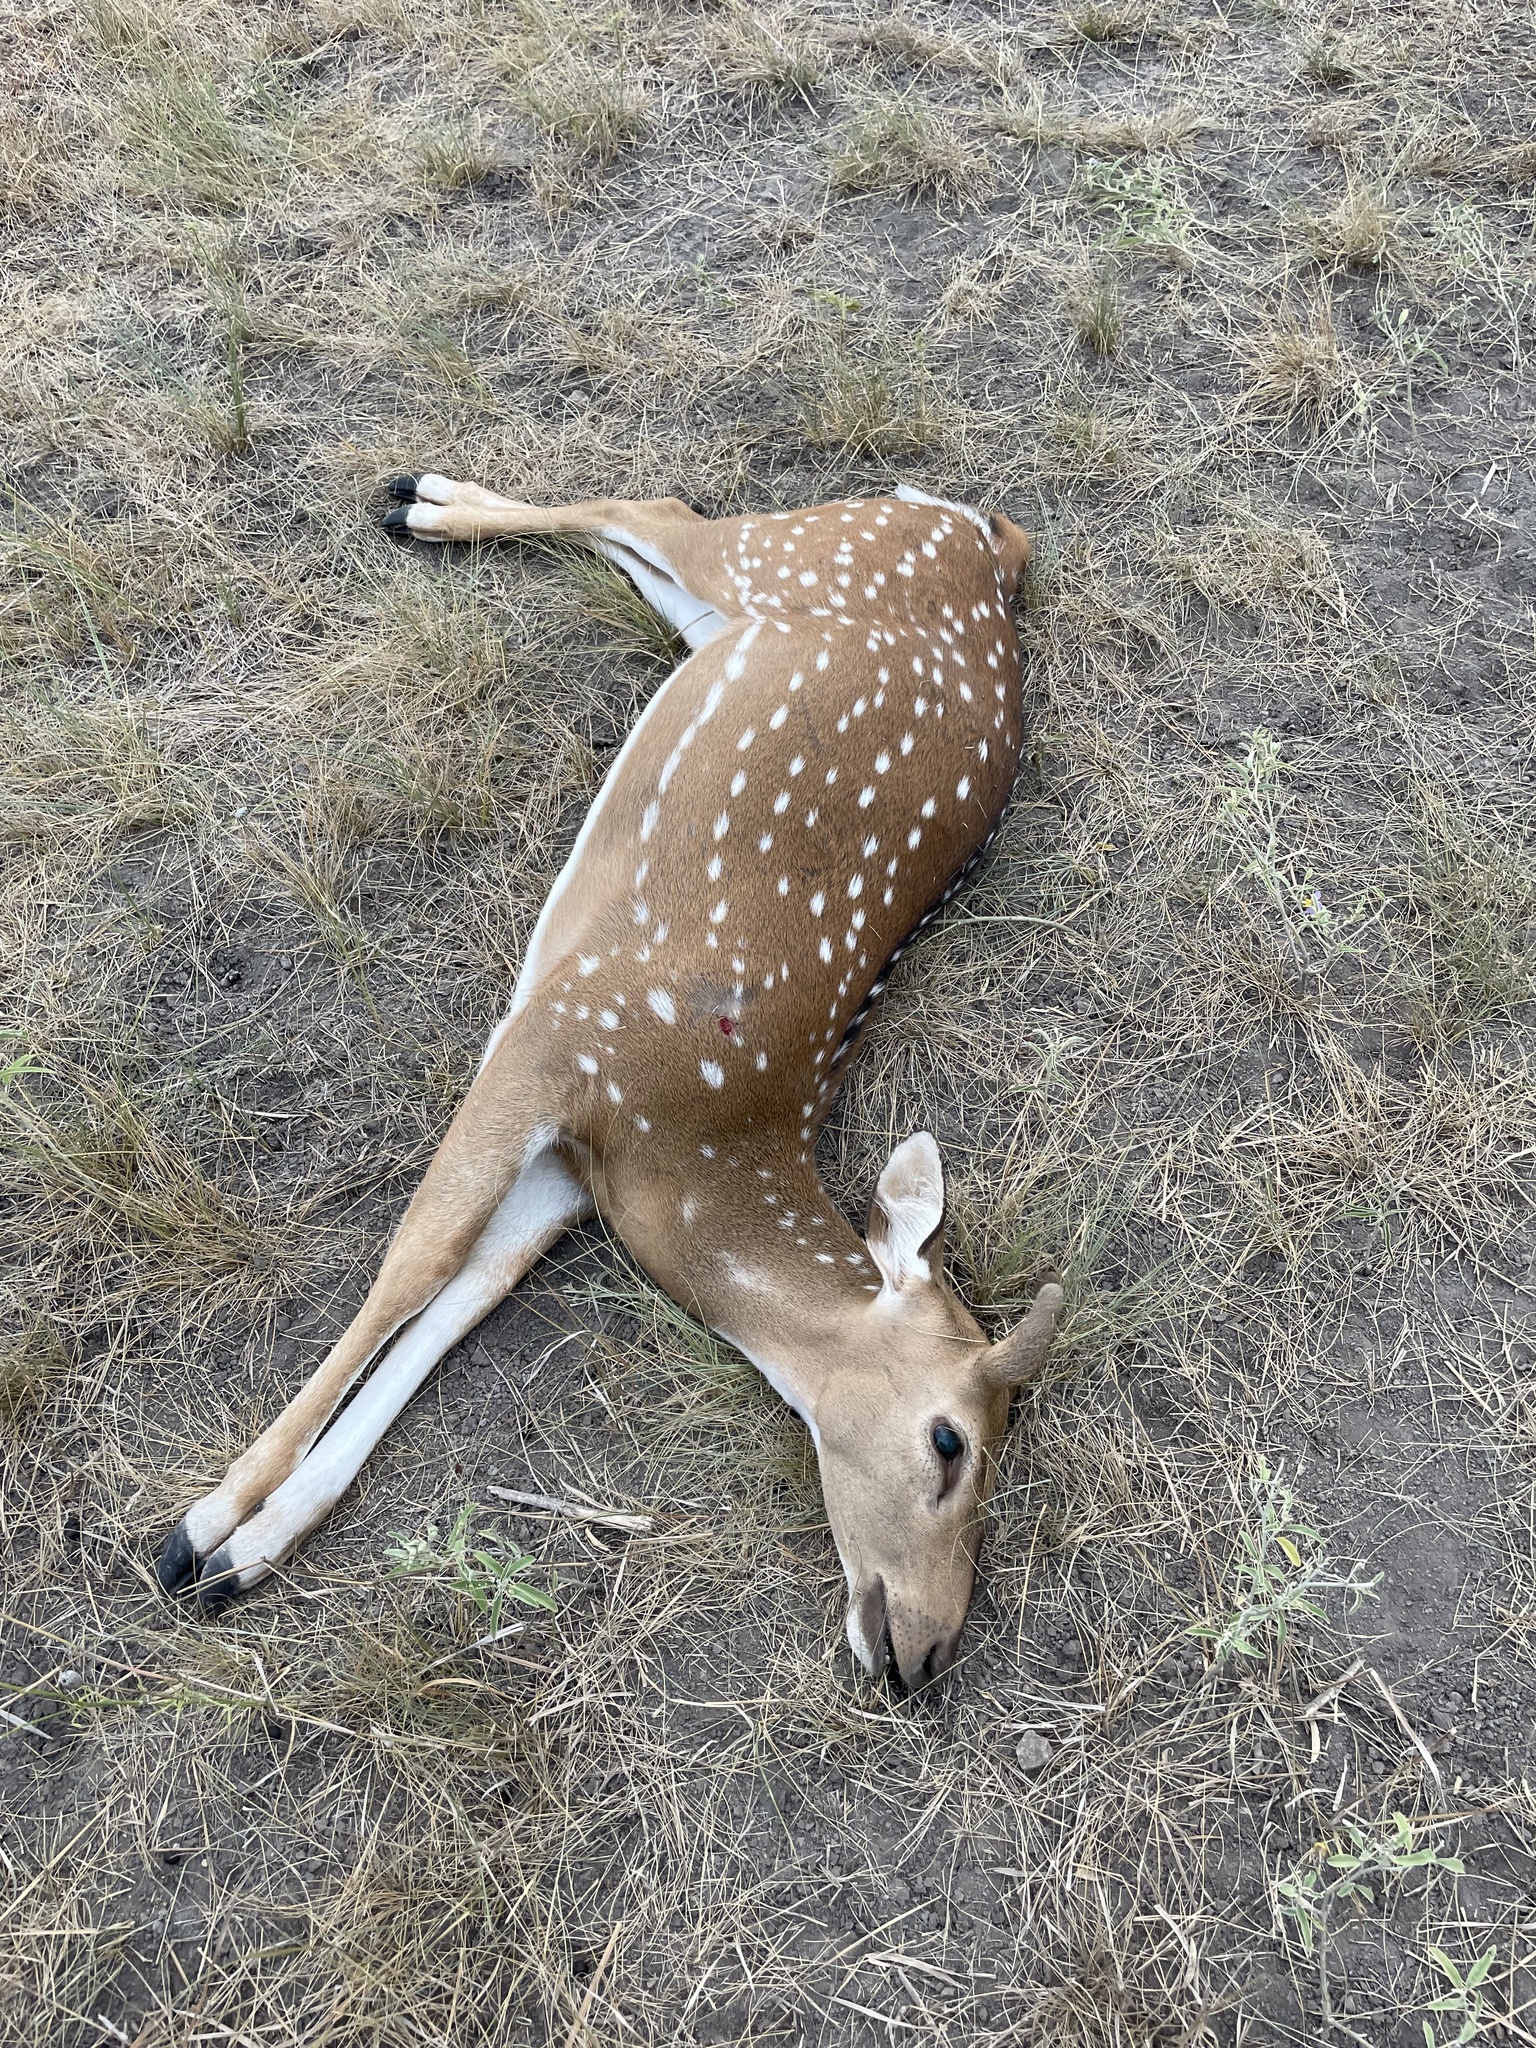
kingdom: Animalia
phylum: Chordata
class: Mammalia
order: Artiodactyla
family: Cervidae
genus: Axis
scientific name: Axis axis
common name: Chital
